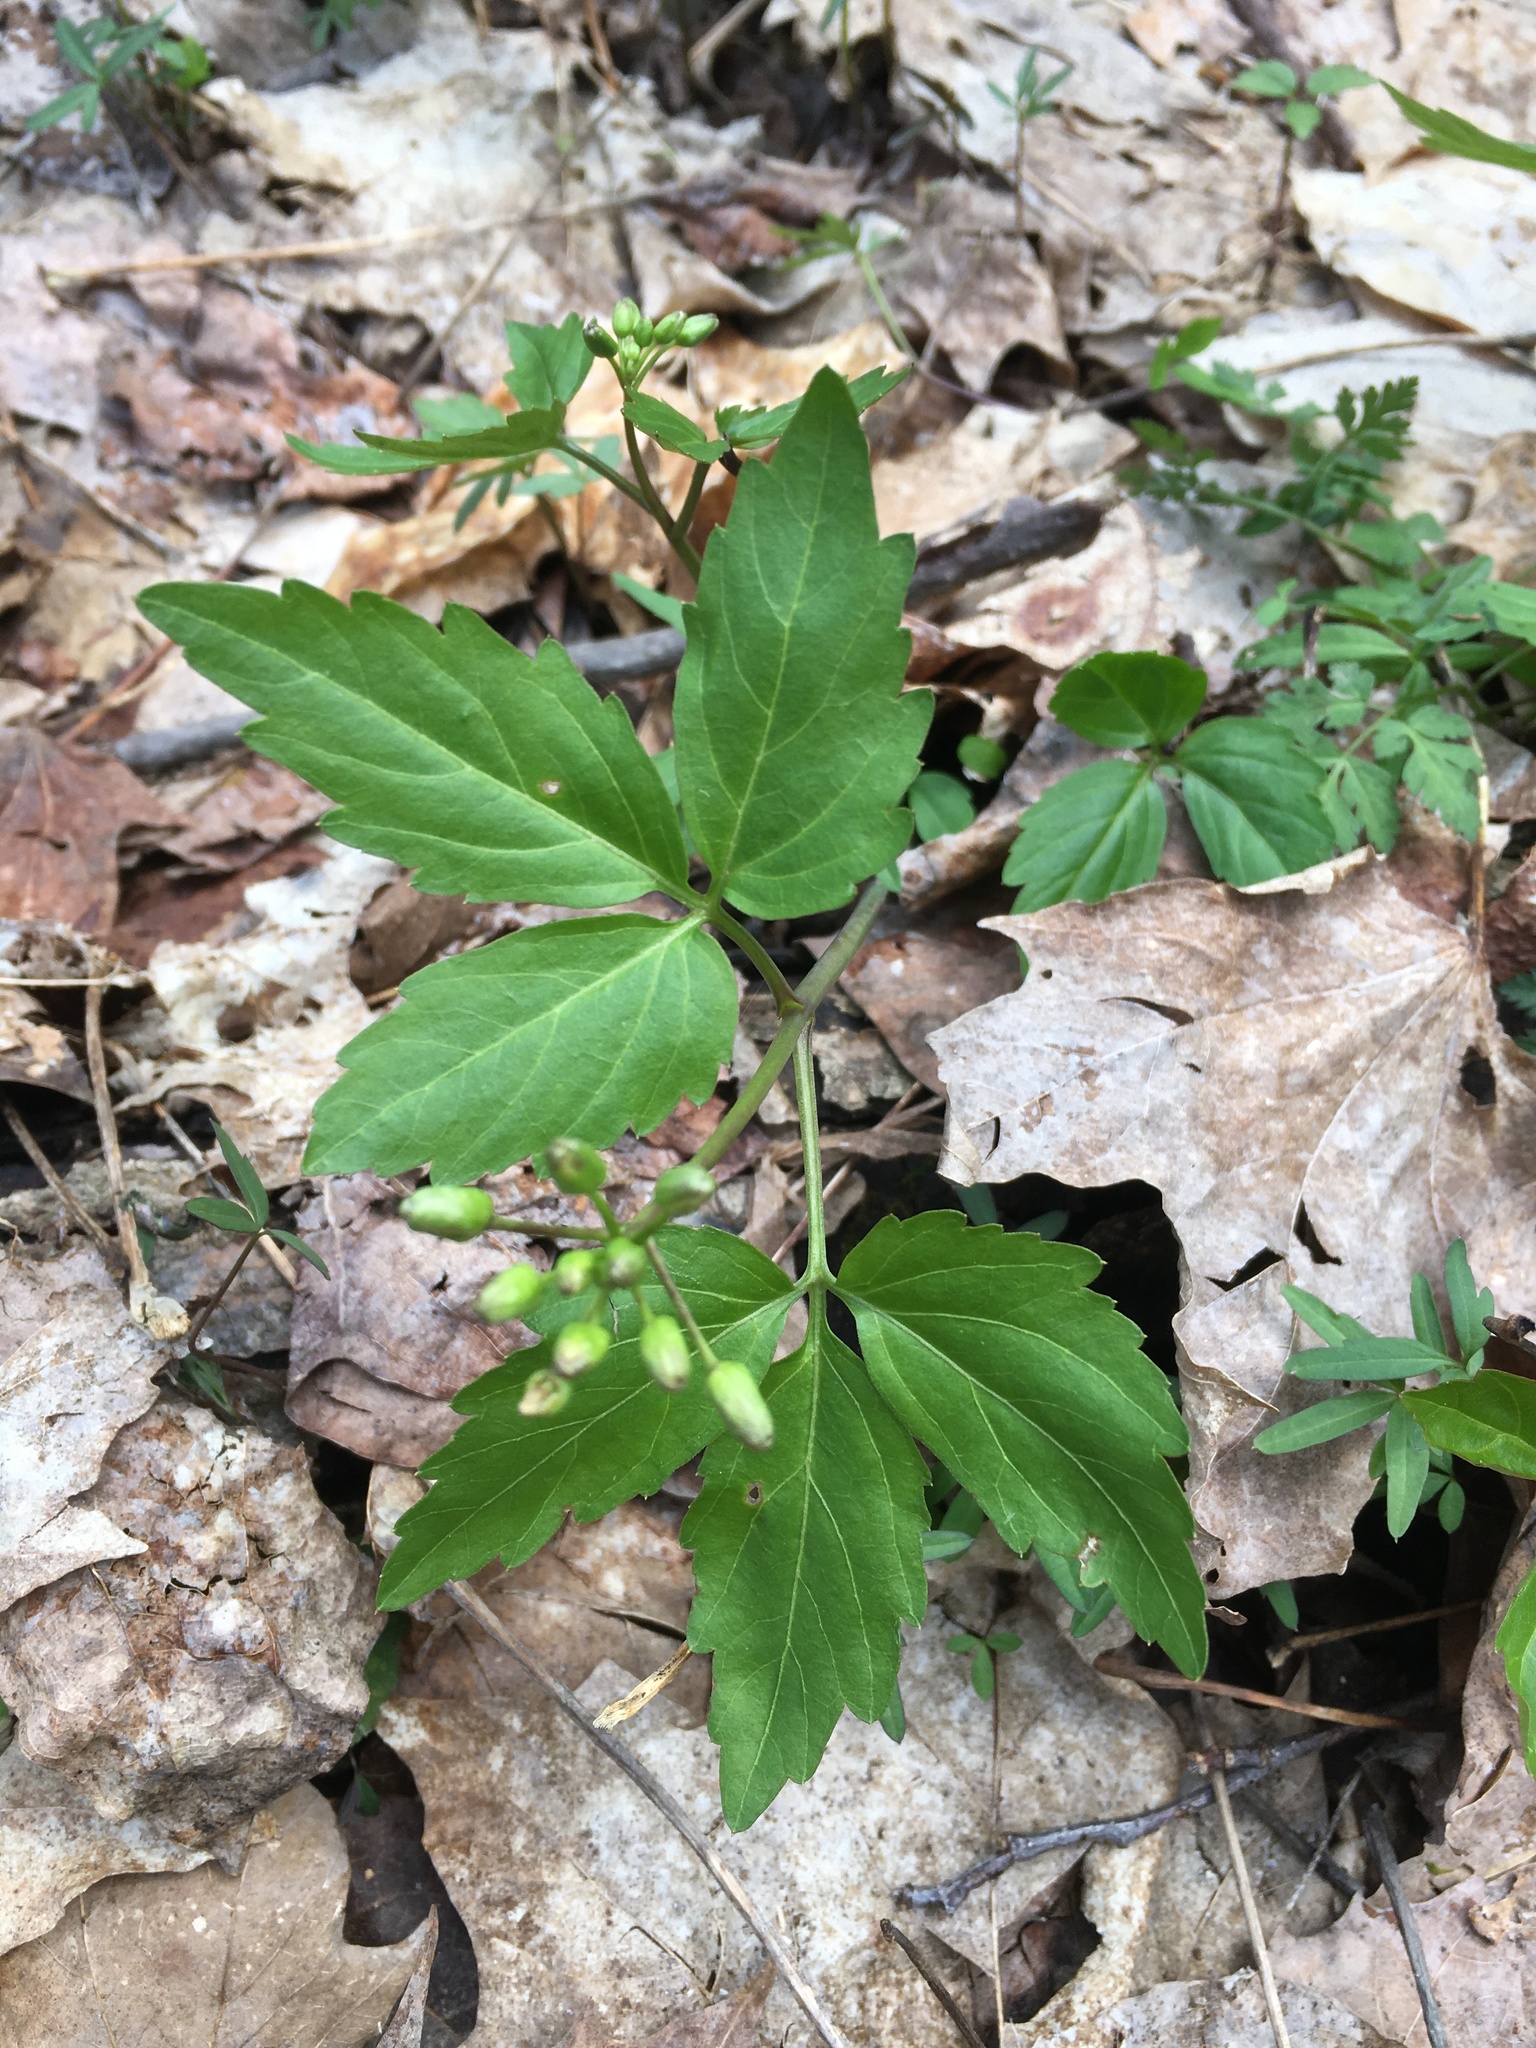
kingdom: Plantae
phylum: Tracheophyta
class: Magnoliopsida
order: Brassicales
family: Brassicaceae
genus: Cardamine
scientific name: Cardamine diphylla
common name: Broad-leaved toothwort
